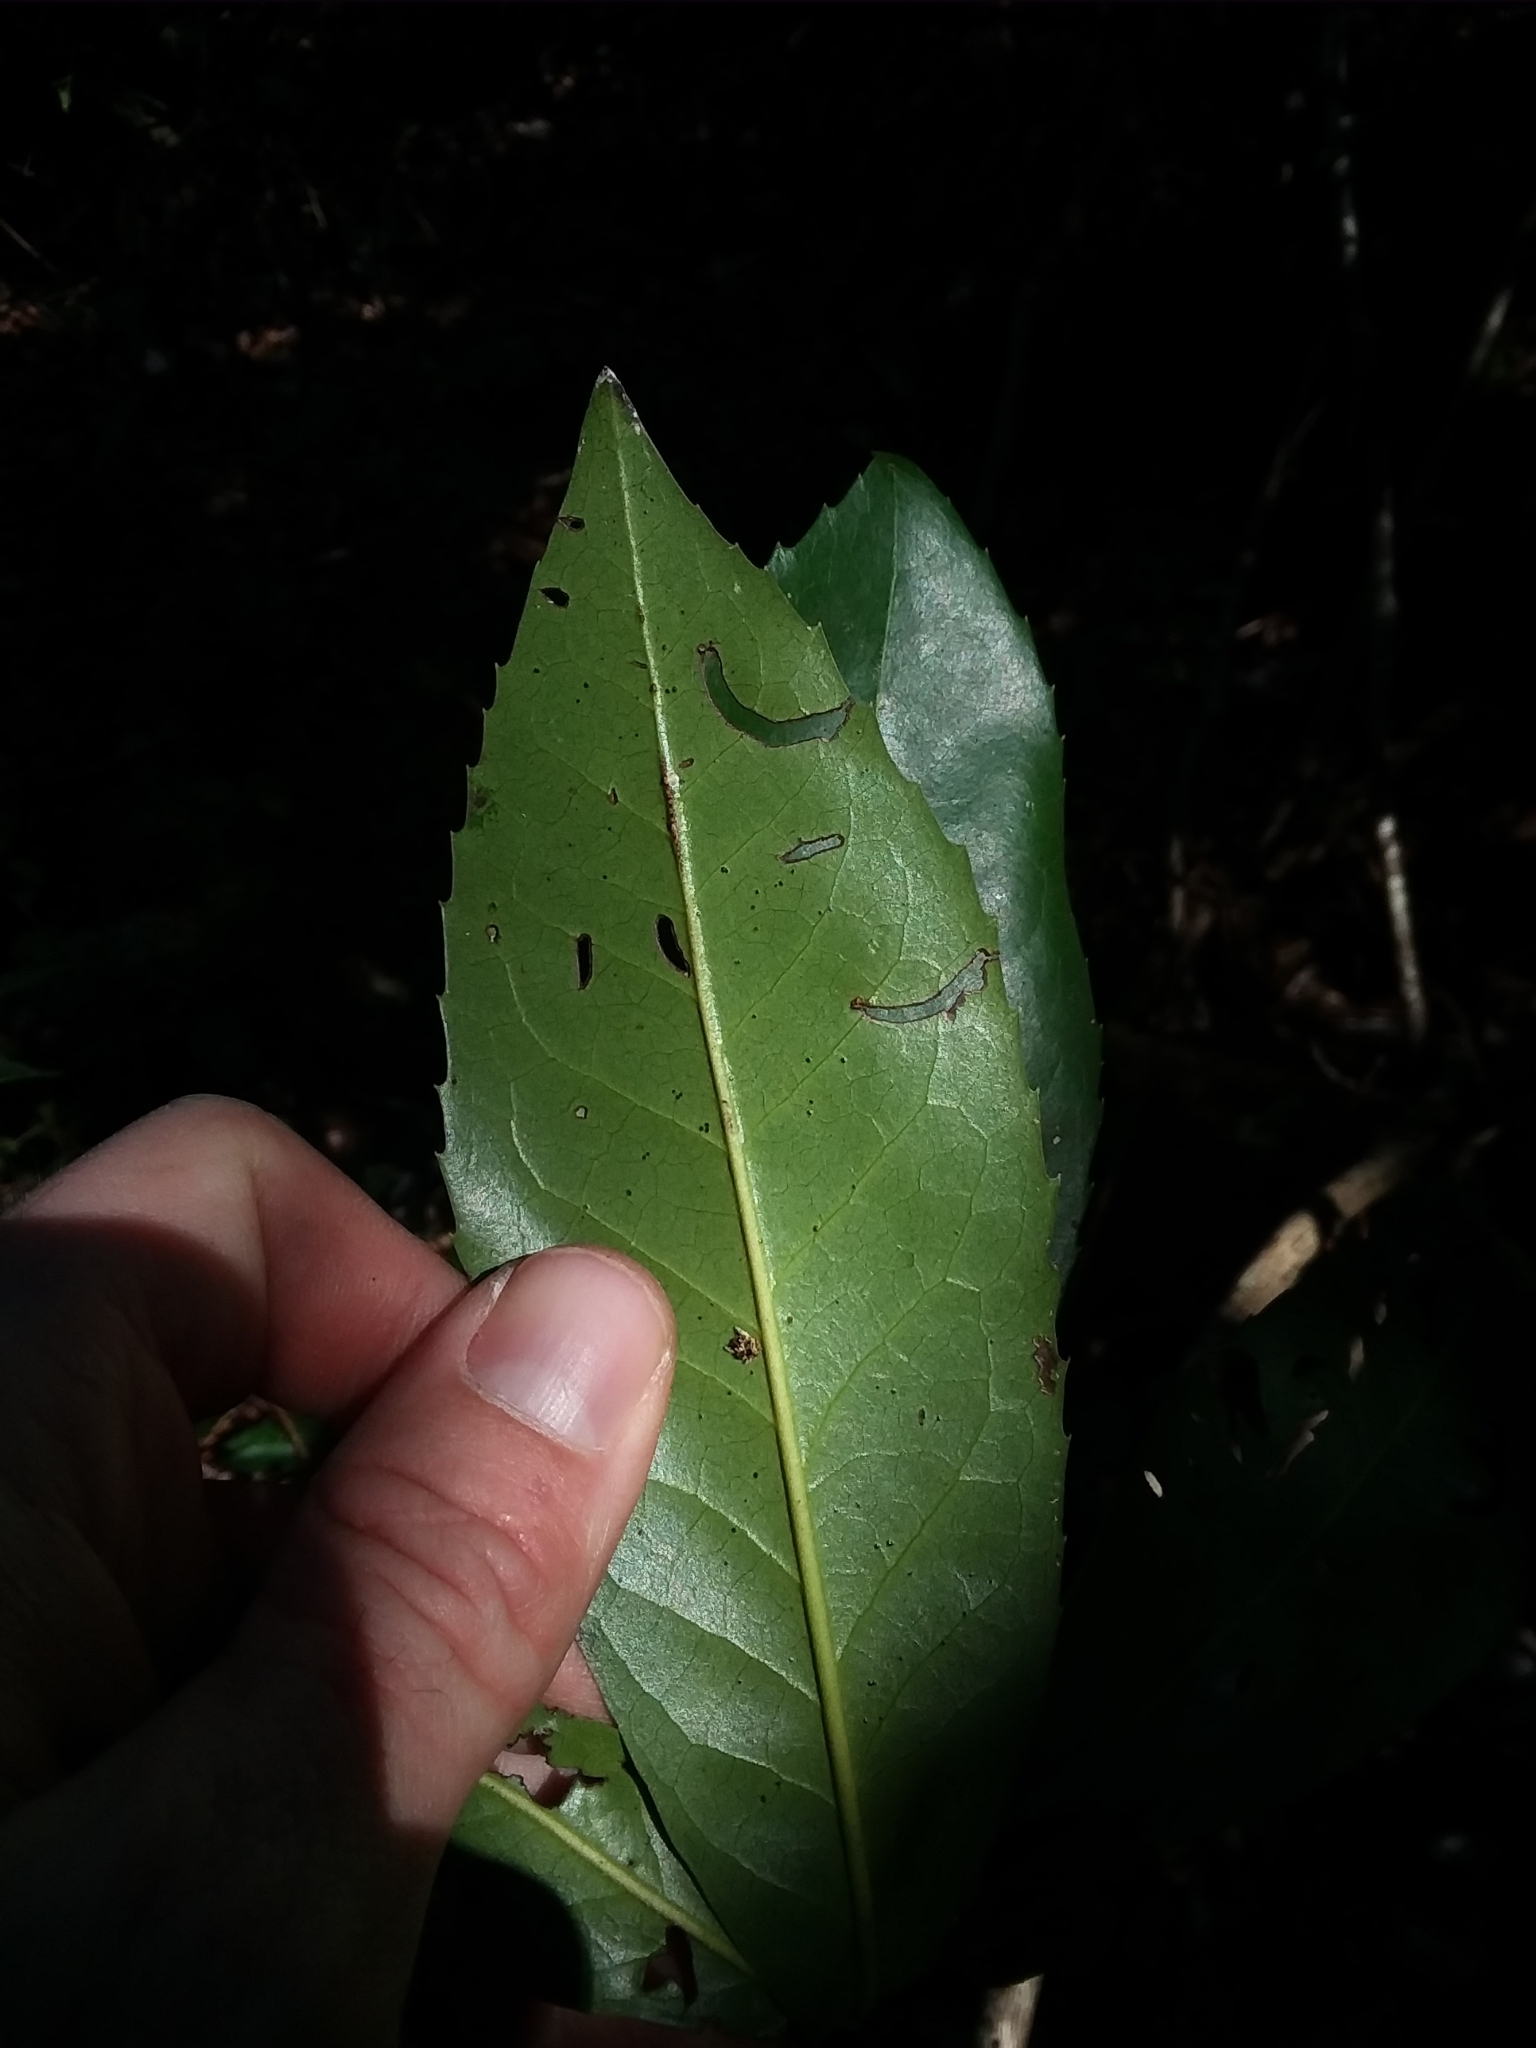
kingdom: Plantae
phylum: Tracheophyta
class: Magnoliopsida
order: Ericales
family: Theaceae
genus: Gordonia
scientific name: Gordonia lasianthus
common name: Loblolly bay
